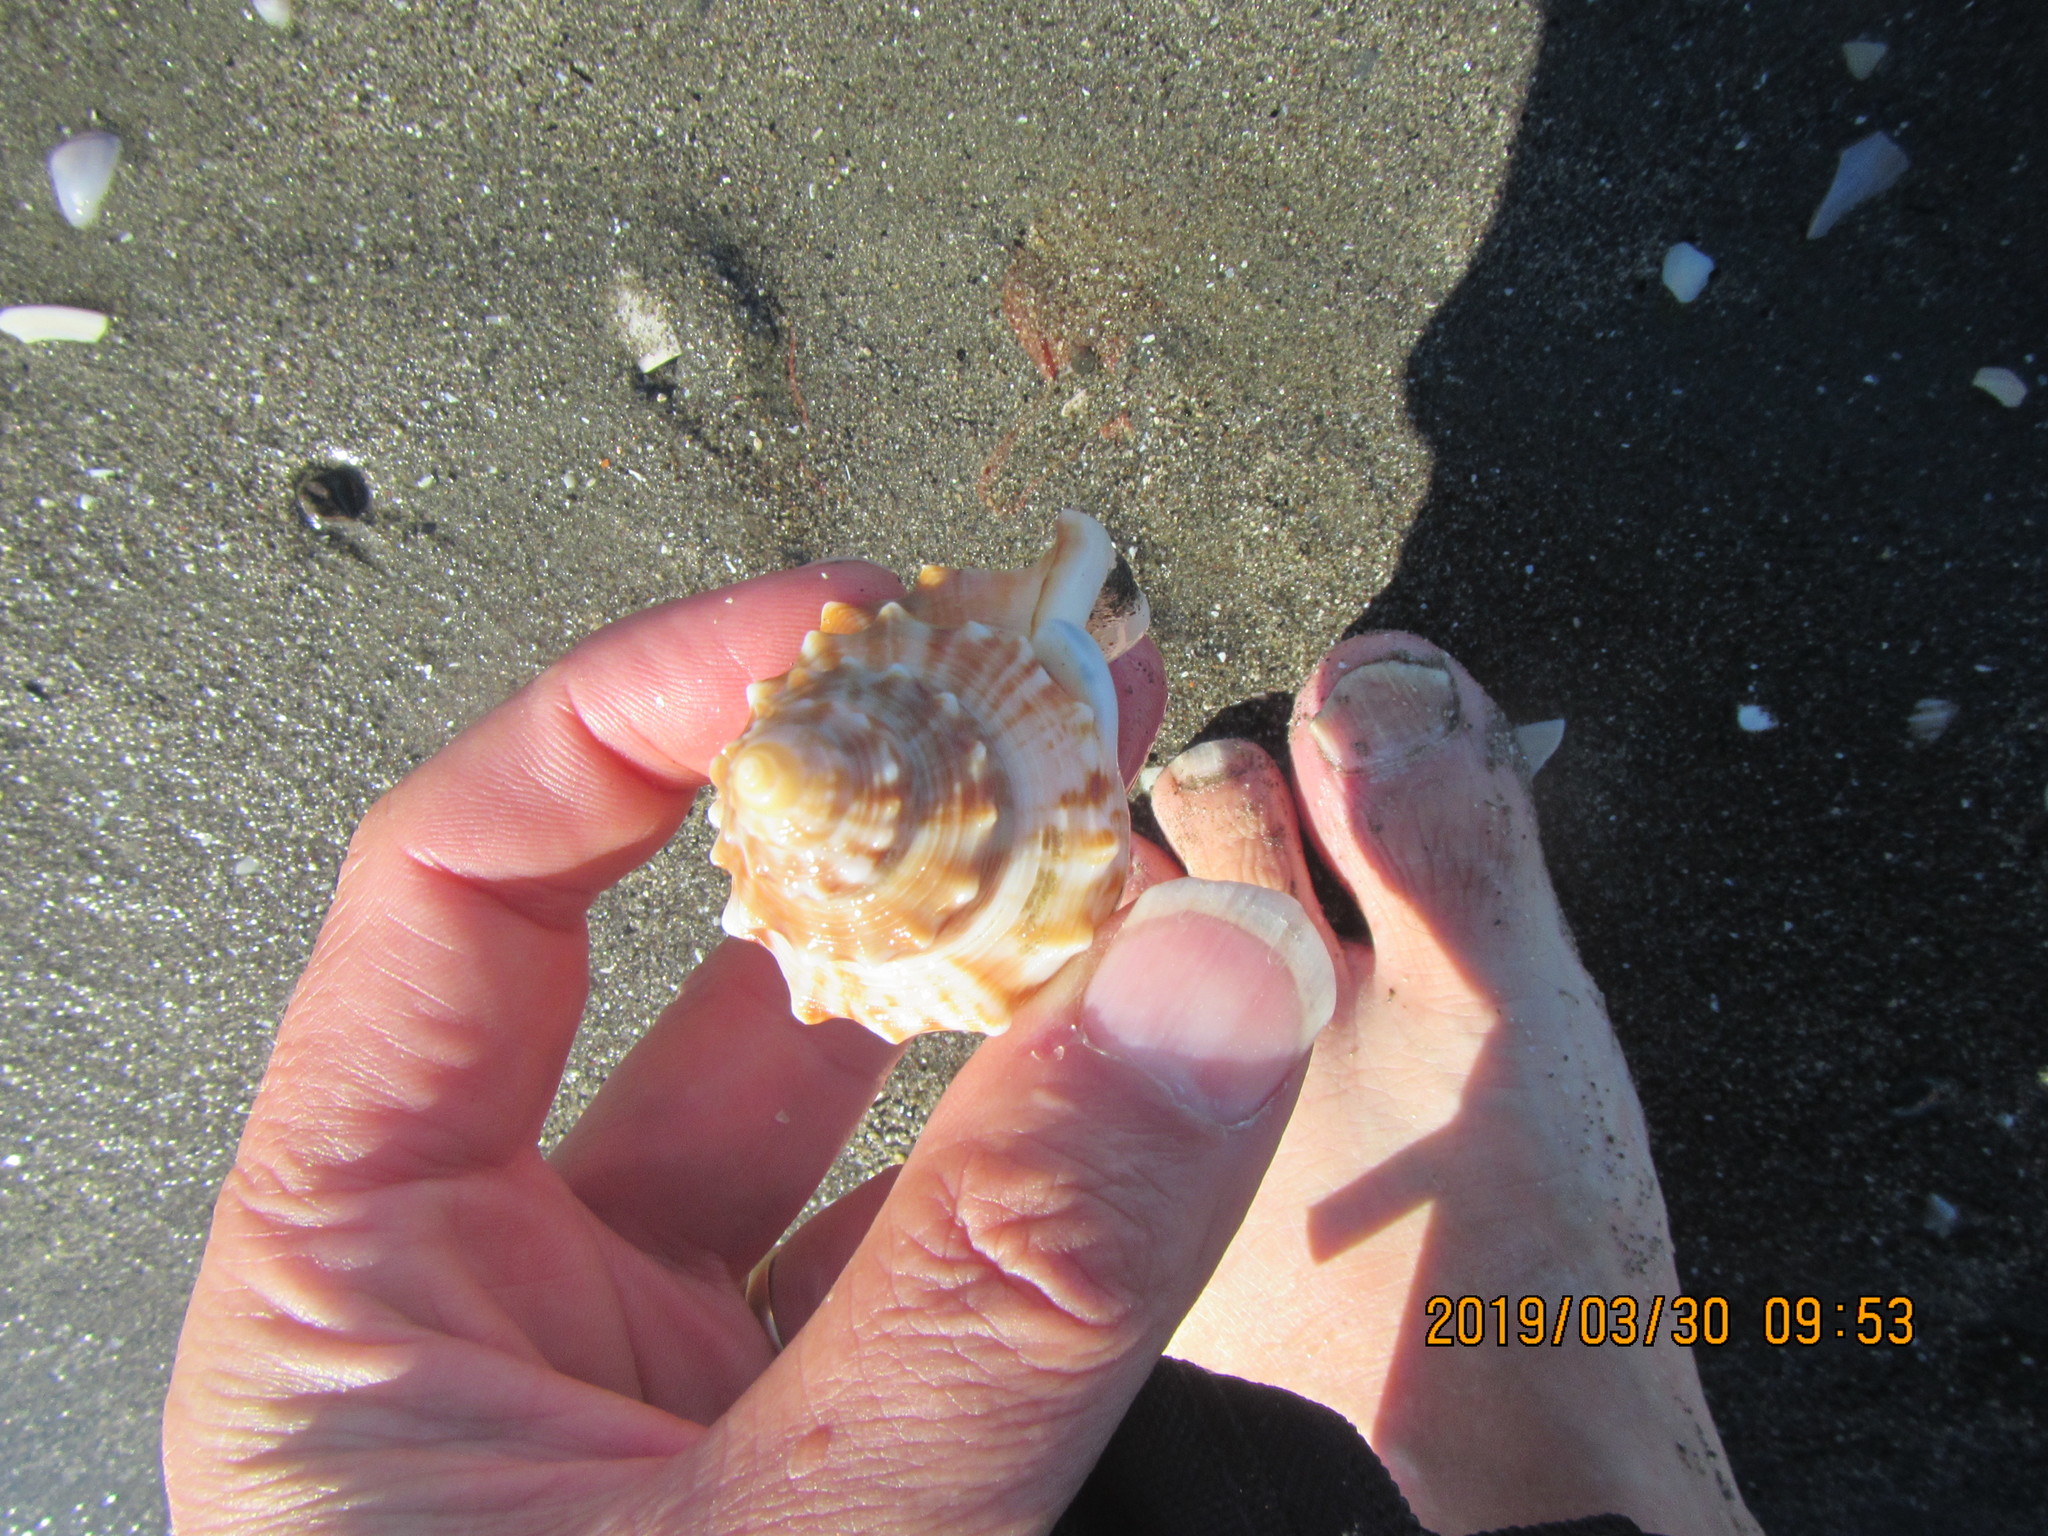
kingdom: Animalia
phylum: Mollusca
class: Gastropoda
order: Littorinimorpha
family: Struthiolariidae
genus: Struthiolaria
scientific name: Struthiolaria papulosa
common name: Large ostrich foot
